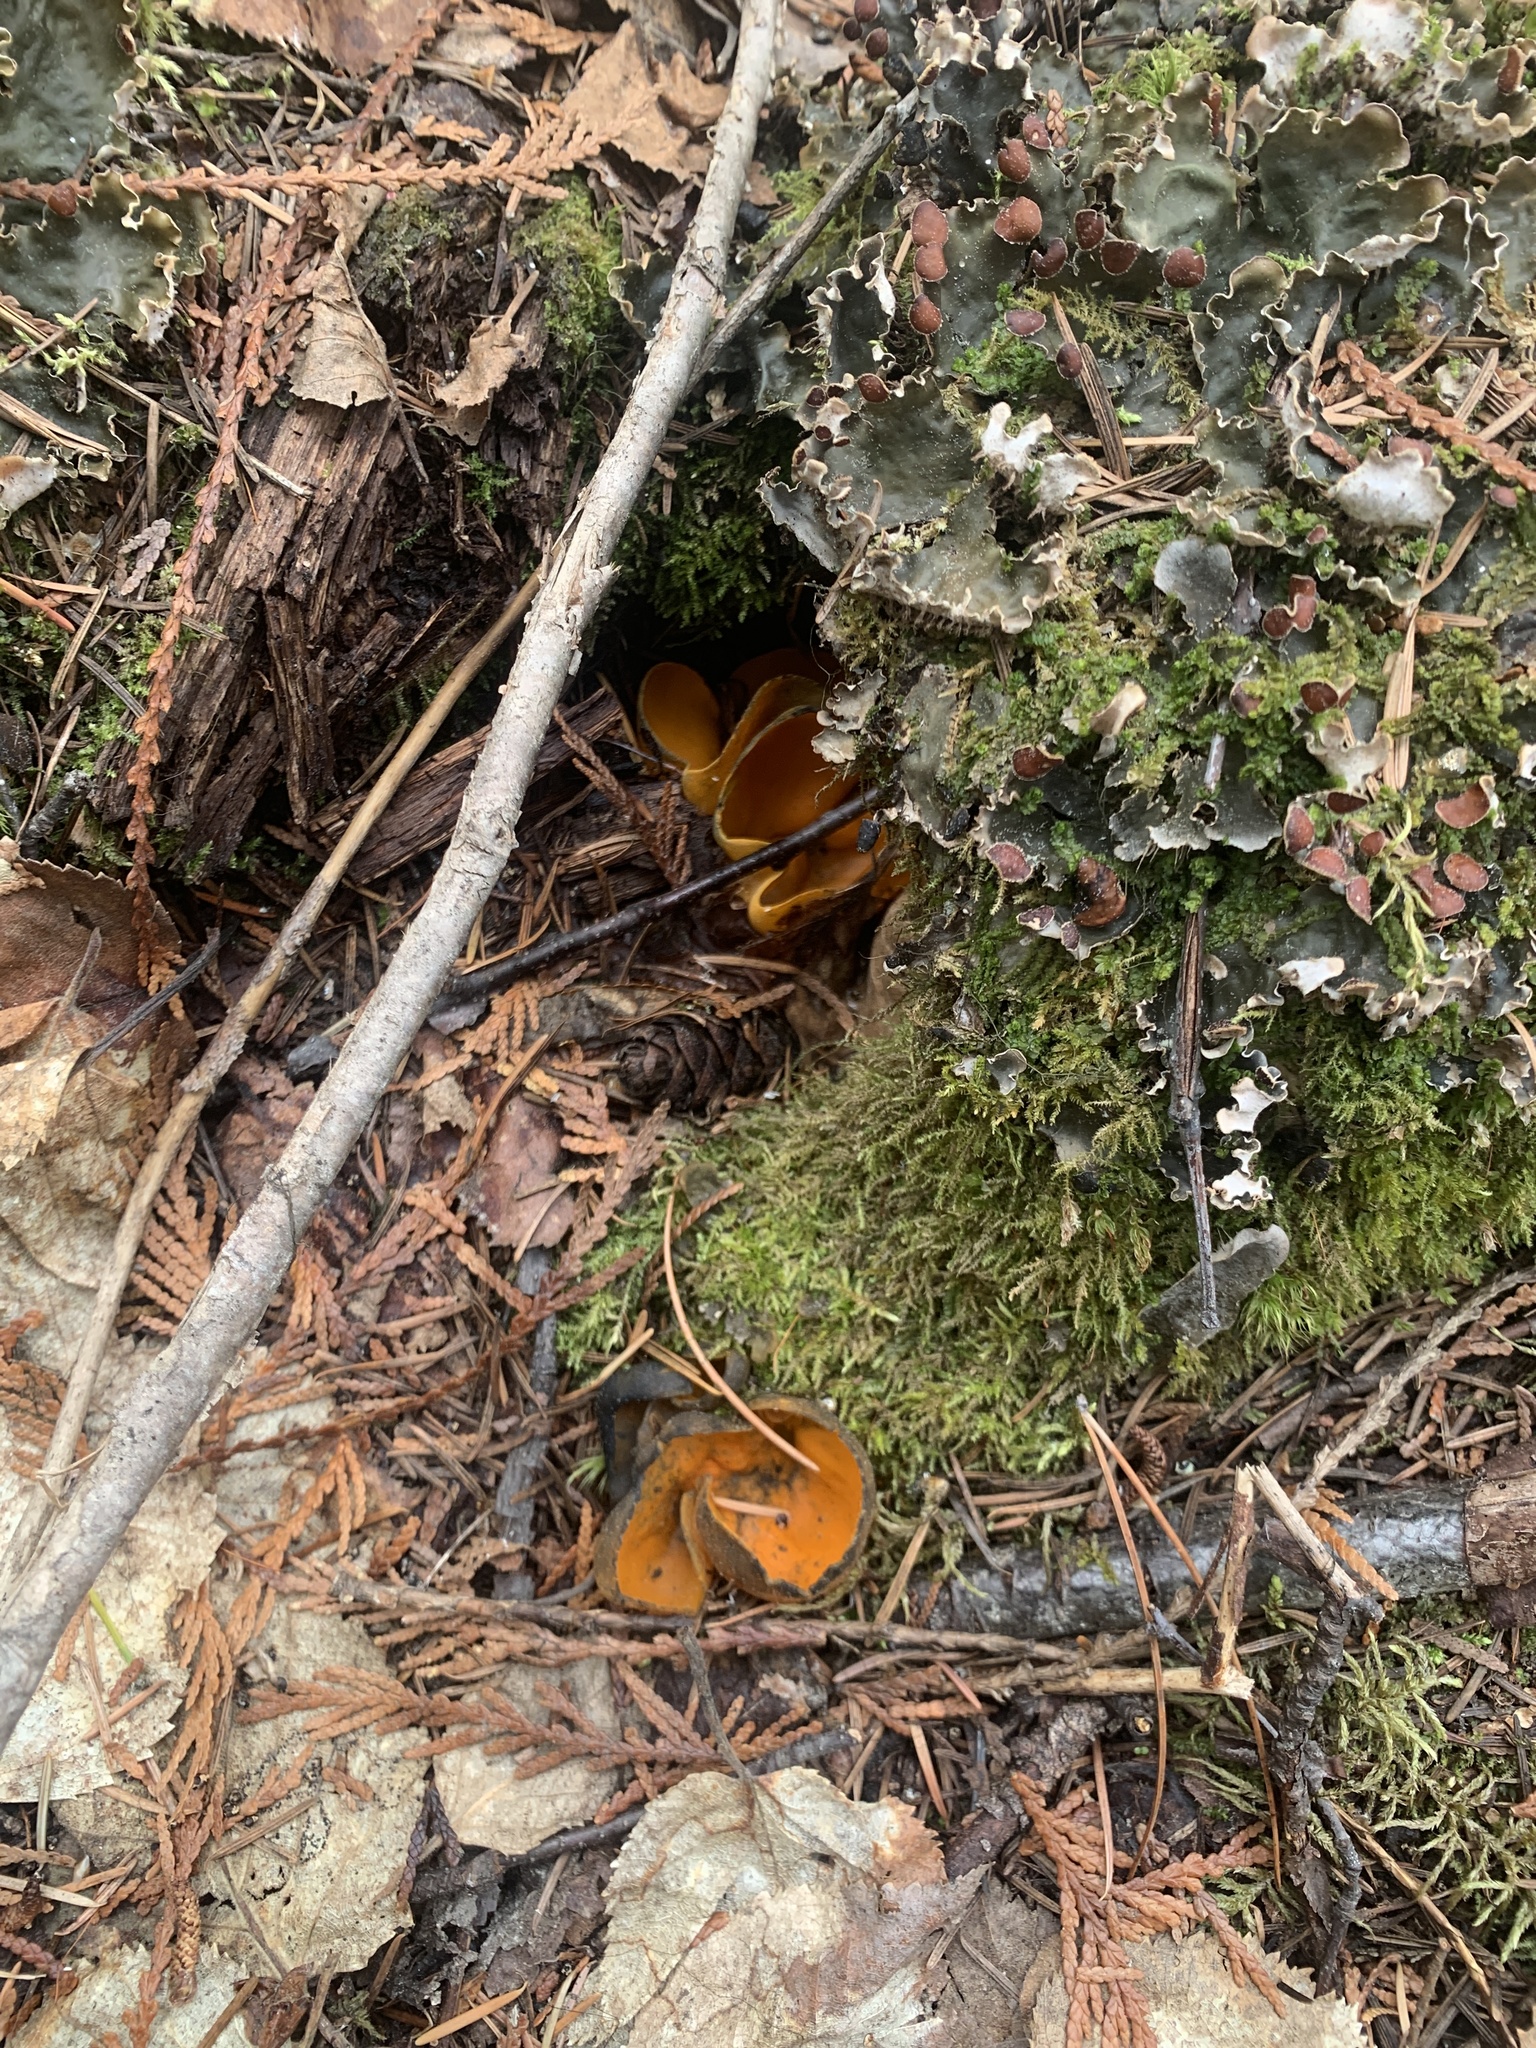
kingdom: Fungi
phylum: Ascomycota
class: Pezizomycetes
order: Pezizales
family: Caloscyphaceae
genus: Caloscypha
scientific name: Caloscypha fulgens
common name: Golden cup
